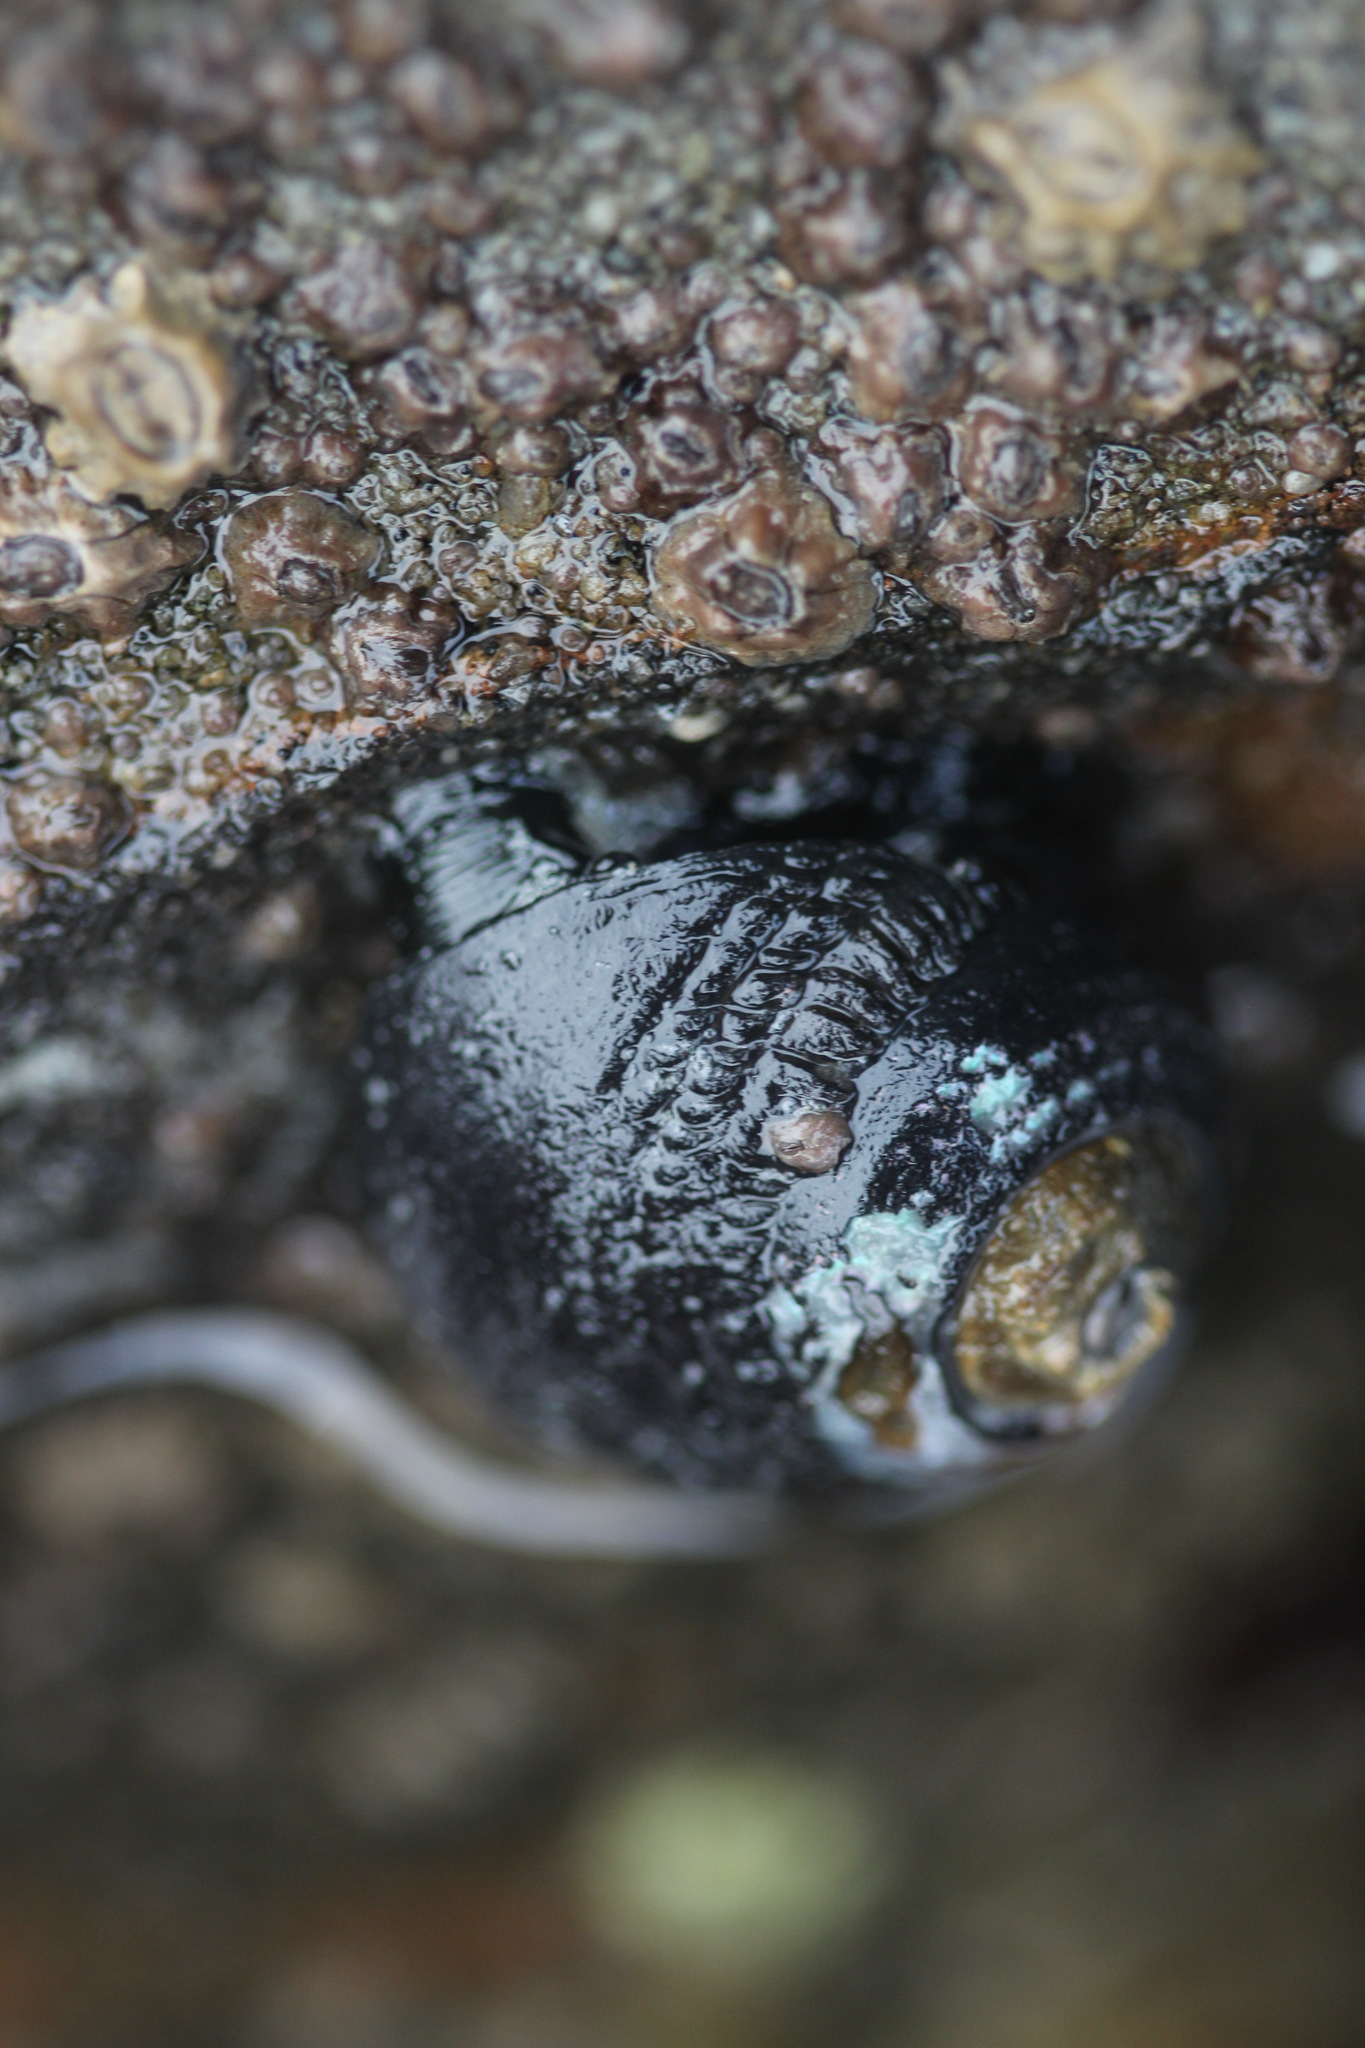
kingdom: Animalia
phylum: Mollusca
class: Gastropoda
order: Trochida
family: Tegulidae
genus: Tegula
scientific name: Tegula funebralis
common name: Black tegula
